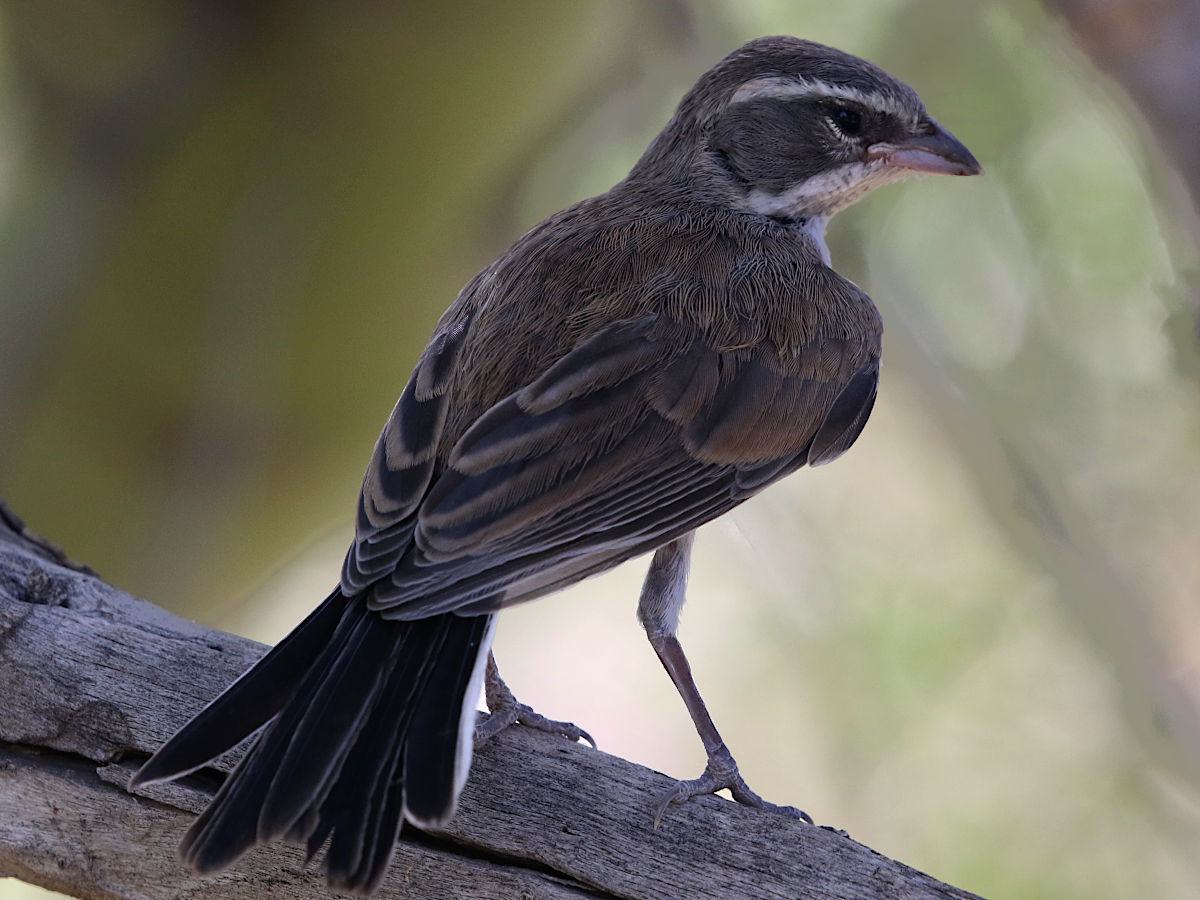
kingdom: Animalia
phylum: Chordata
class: Aves
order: Passeriformes
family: Passerellidae
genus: Amphispiza
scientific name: Amphispiza bilineata
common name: Black-throated sparrow
